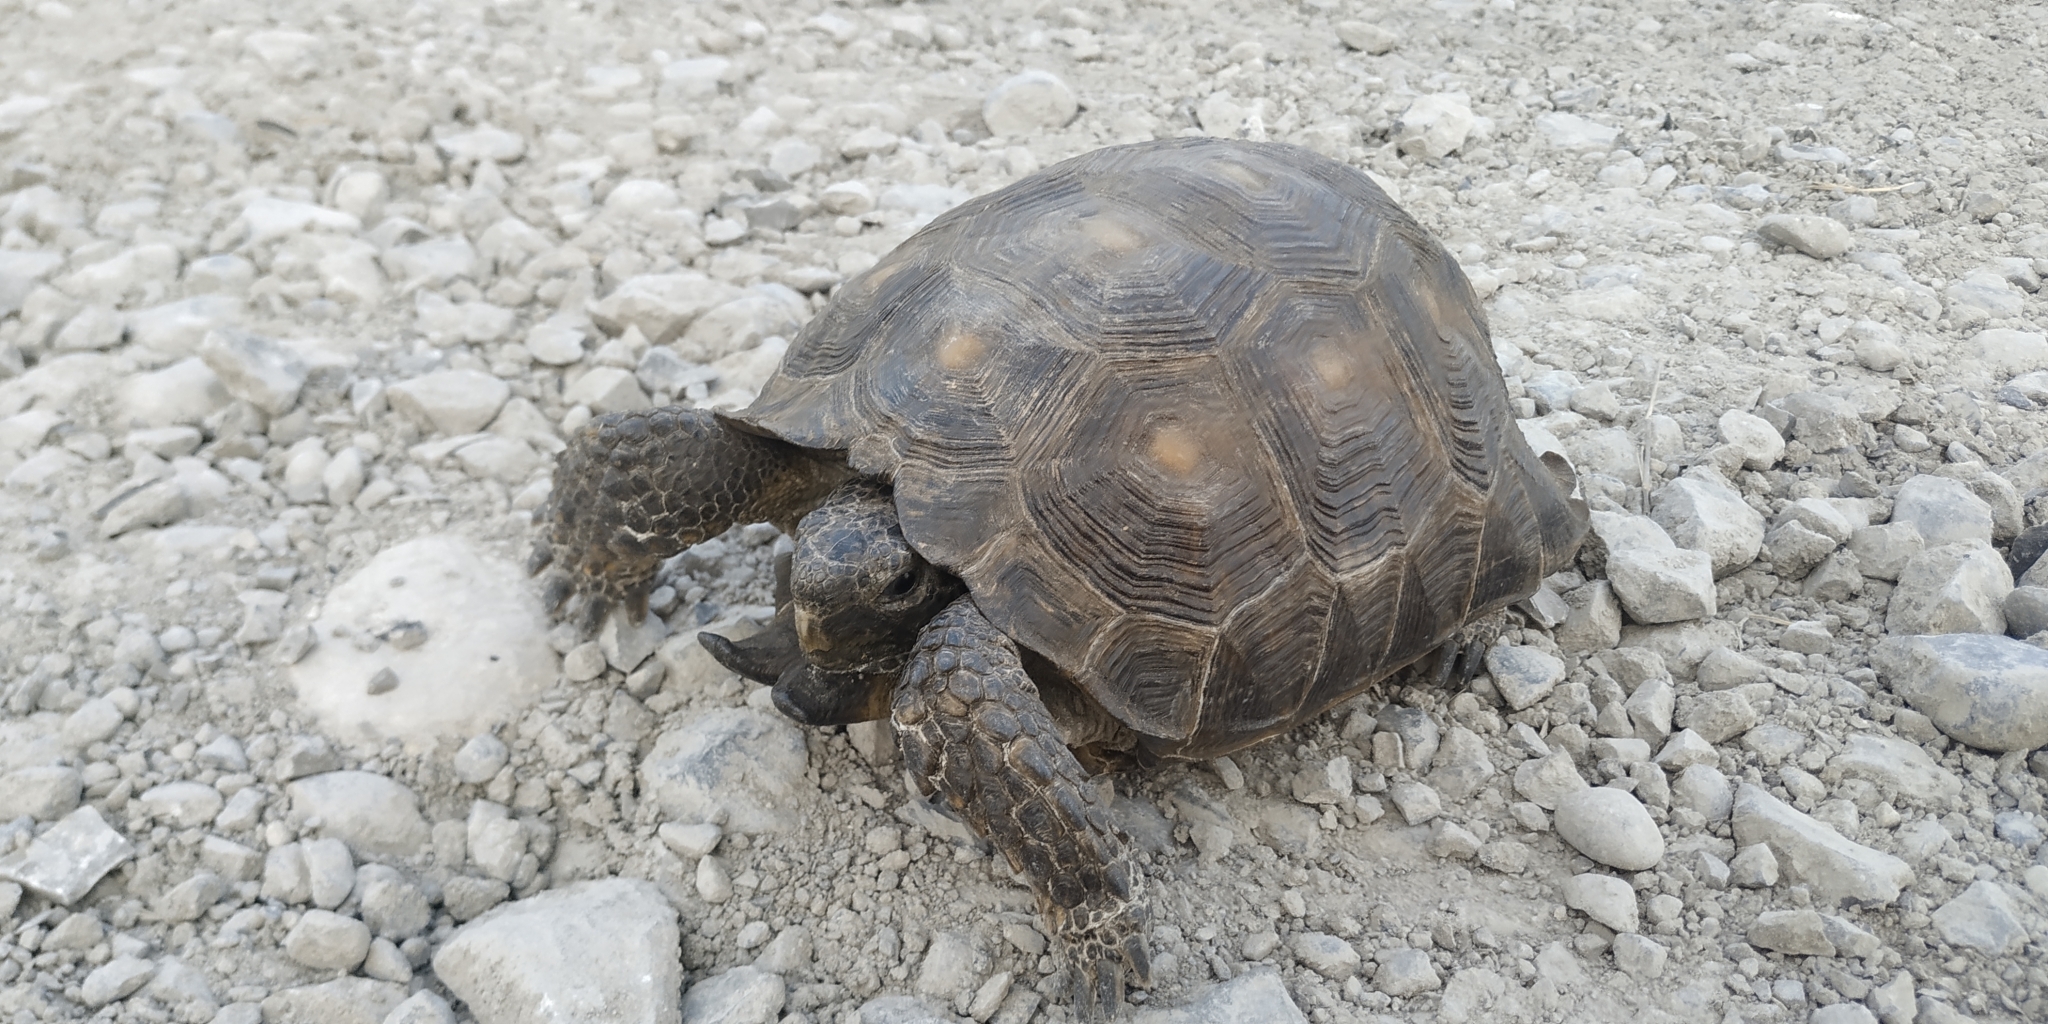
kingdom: Animalia
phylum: Chordata
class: Testudines
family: Testudinidae
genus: Gopherus
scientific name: Gopherus berlandieri
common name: Texas (gopher )tortoise
